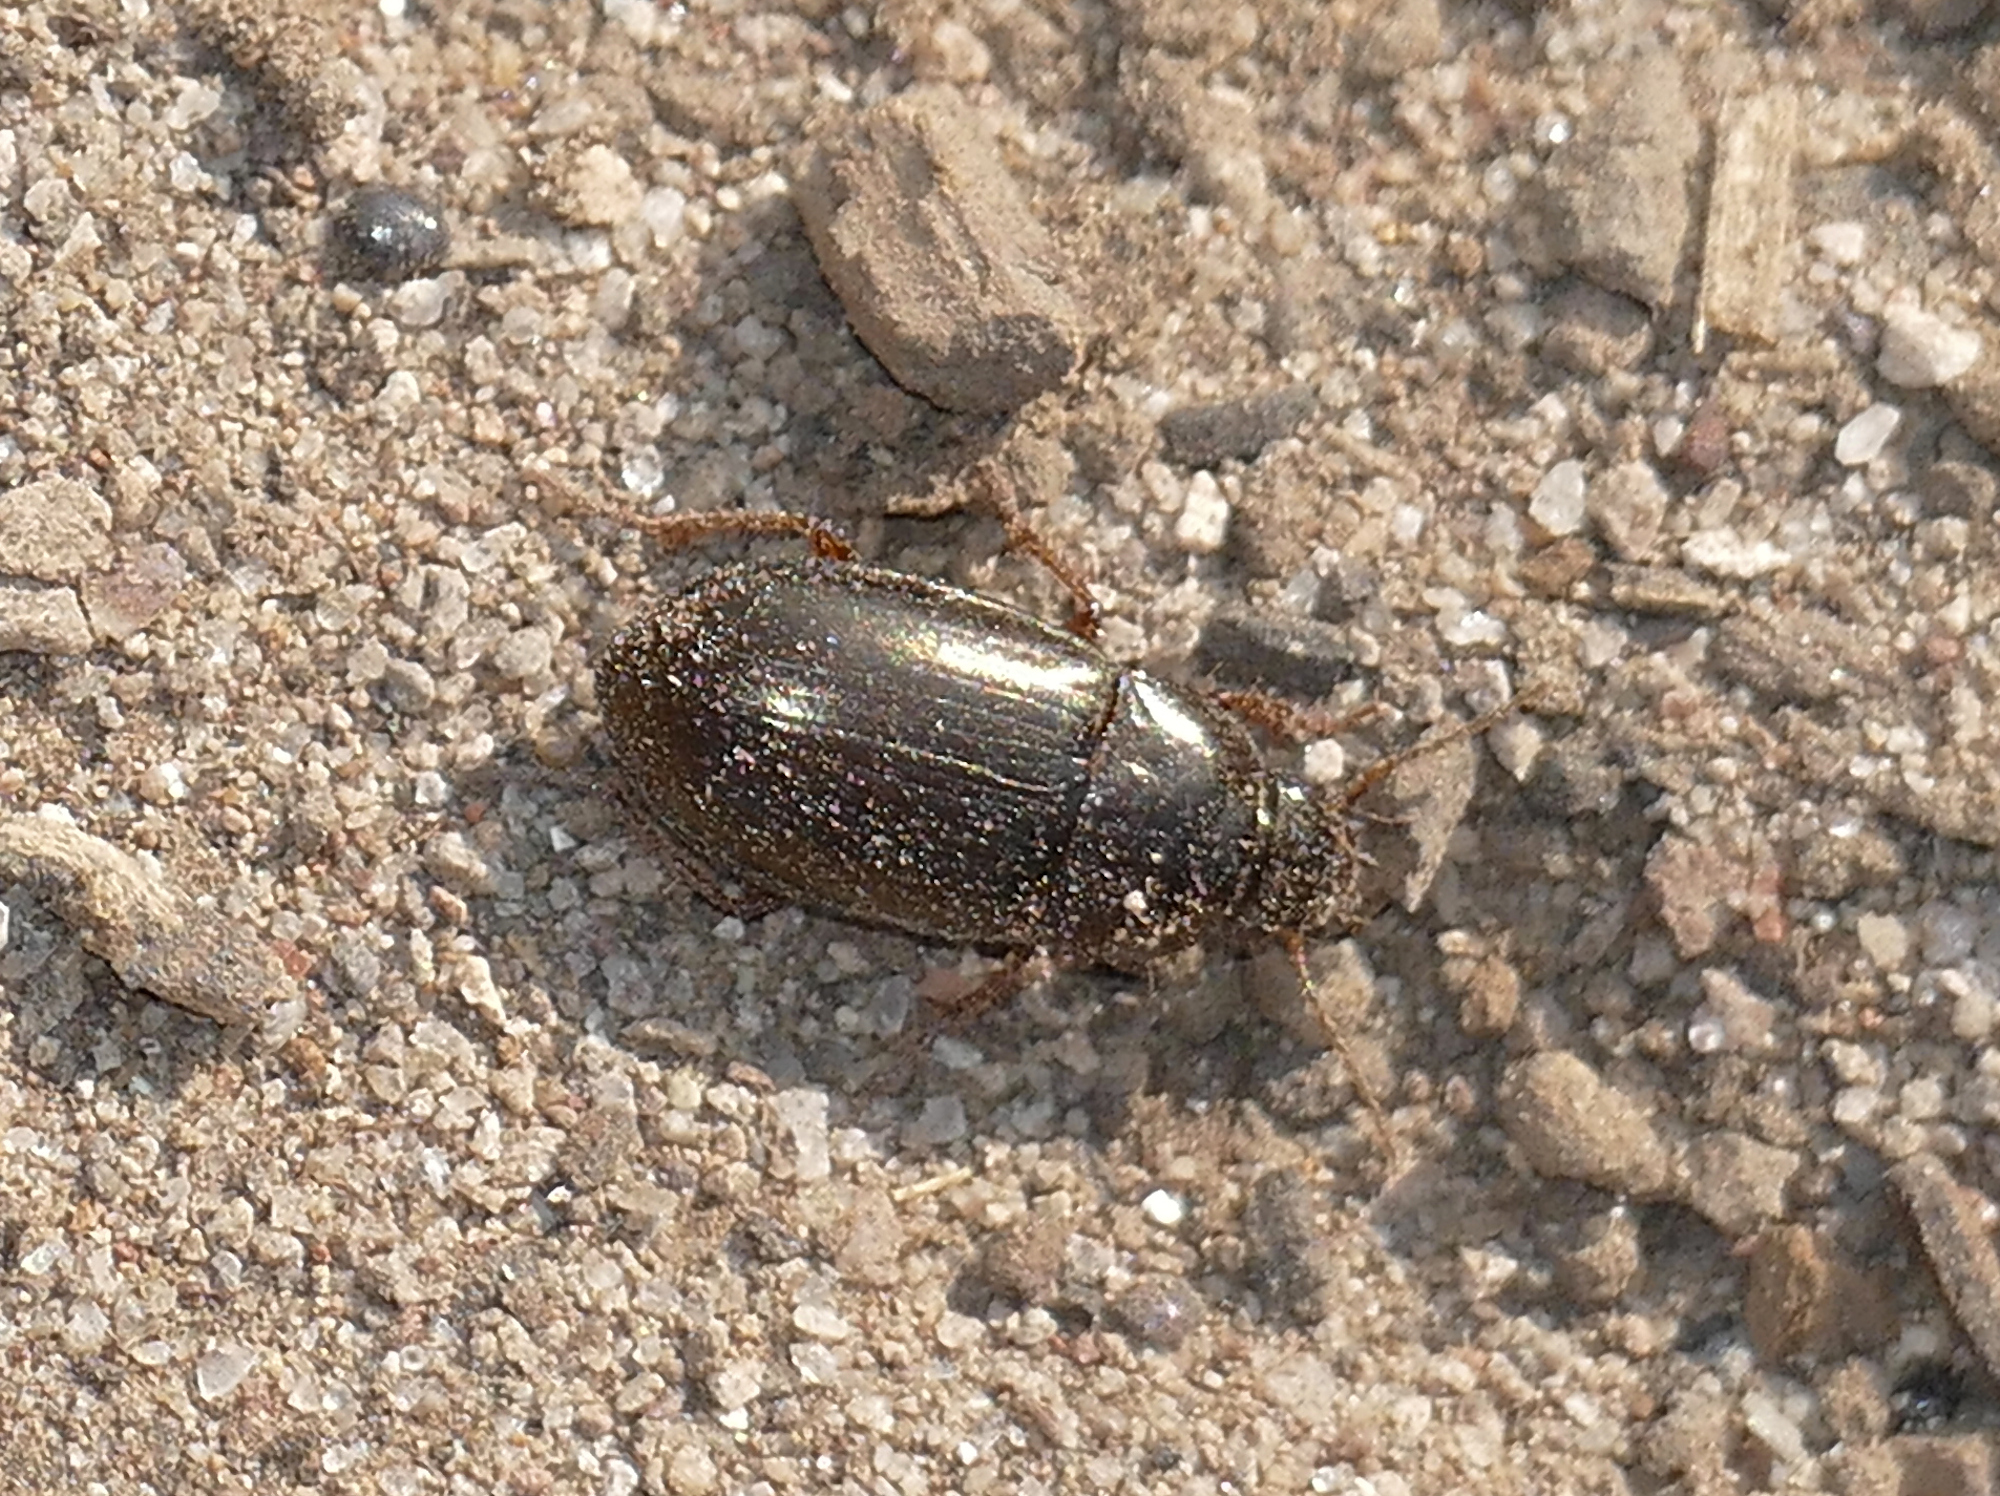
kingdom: Animalia
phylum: Arthropoda
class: Insecta
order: Coleoptera
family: Carabidae
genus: Amara
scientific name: Amara
